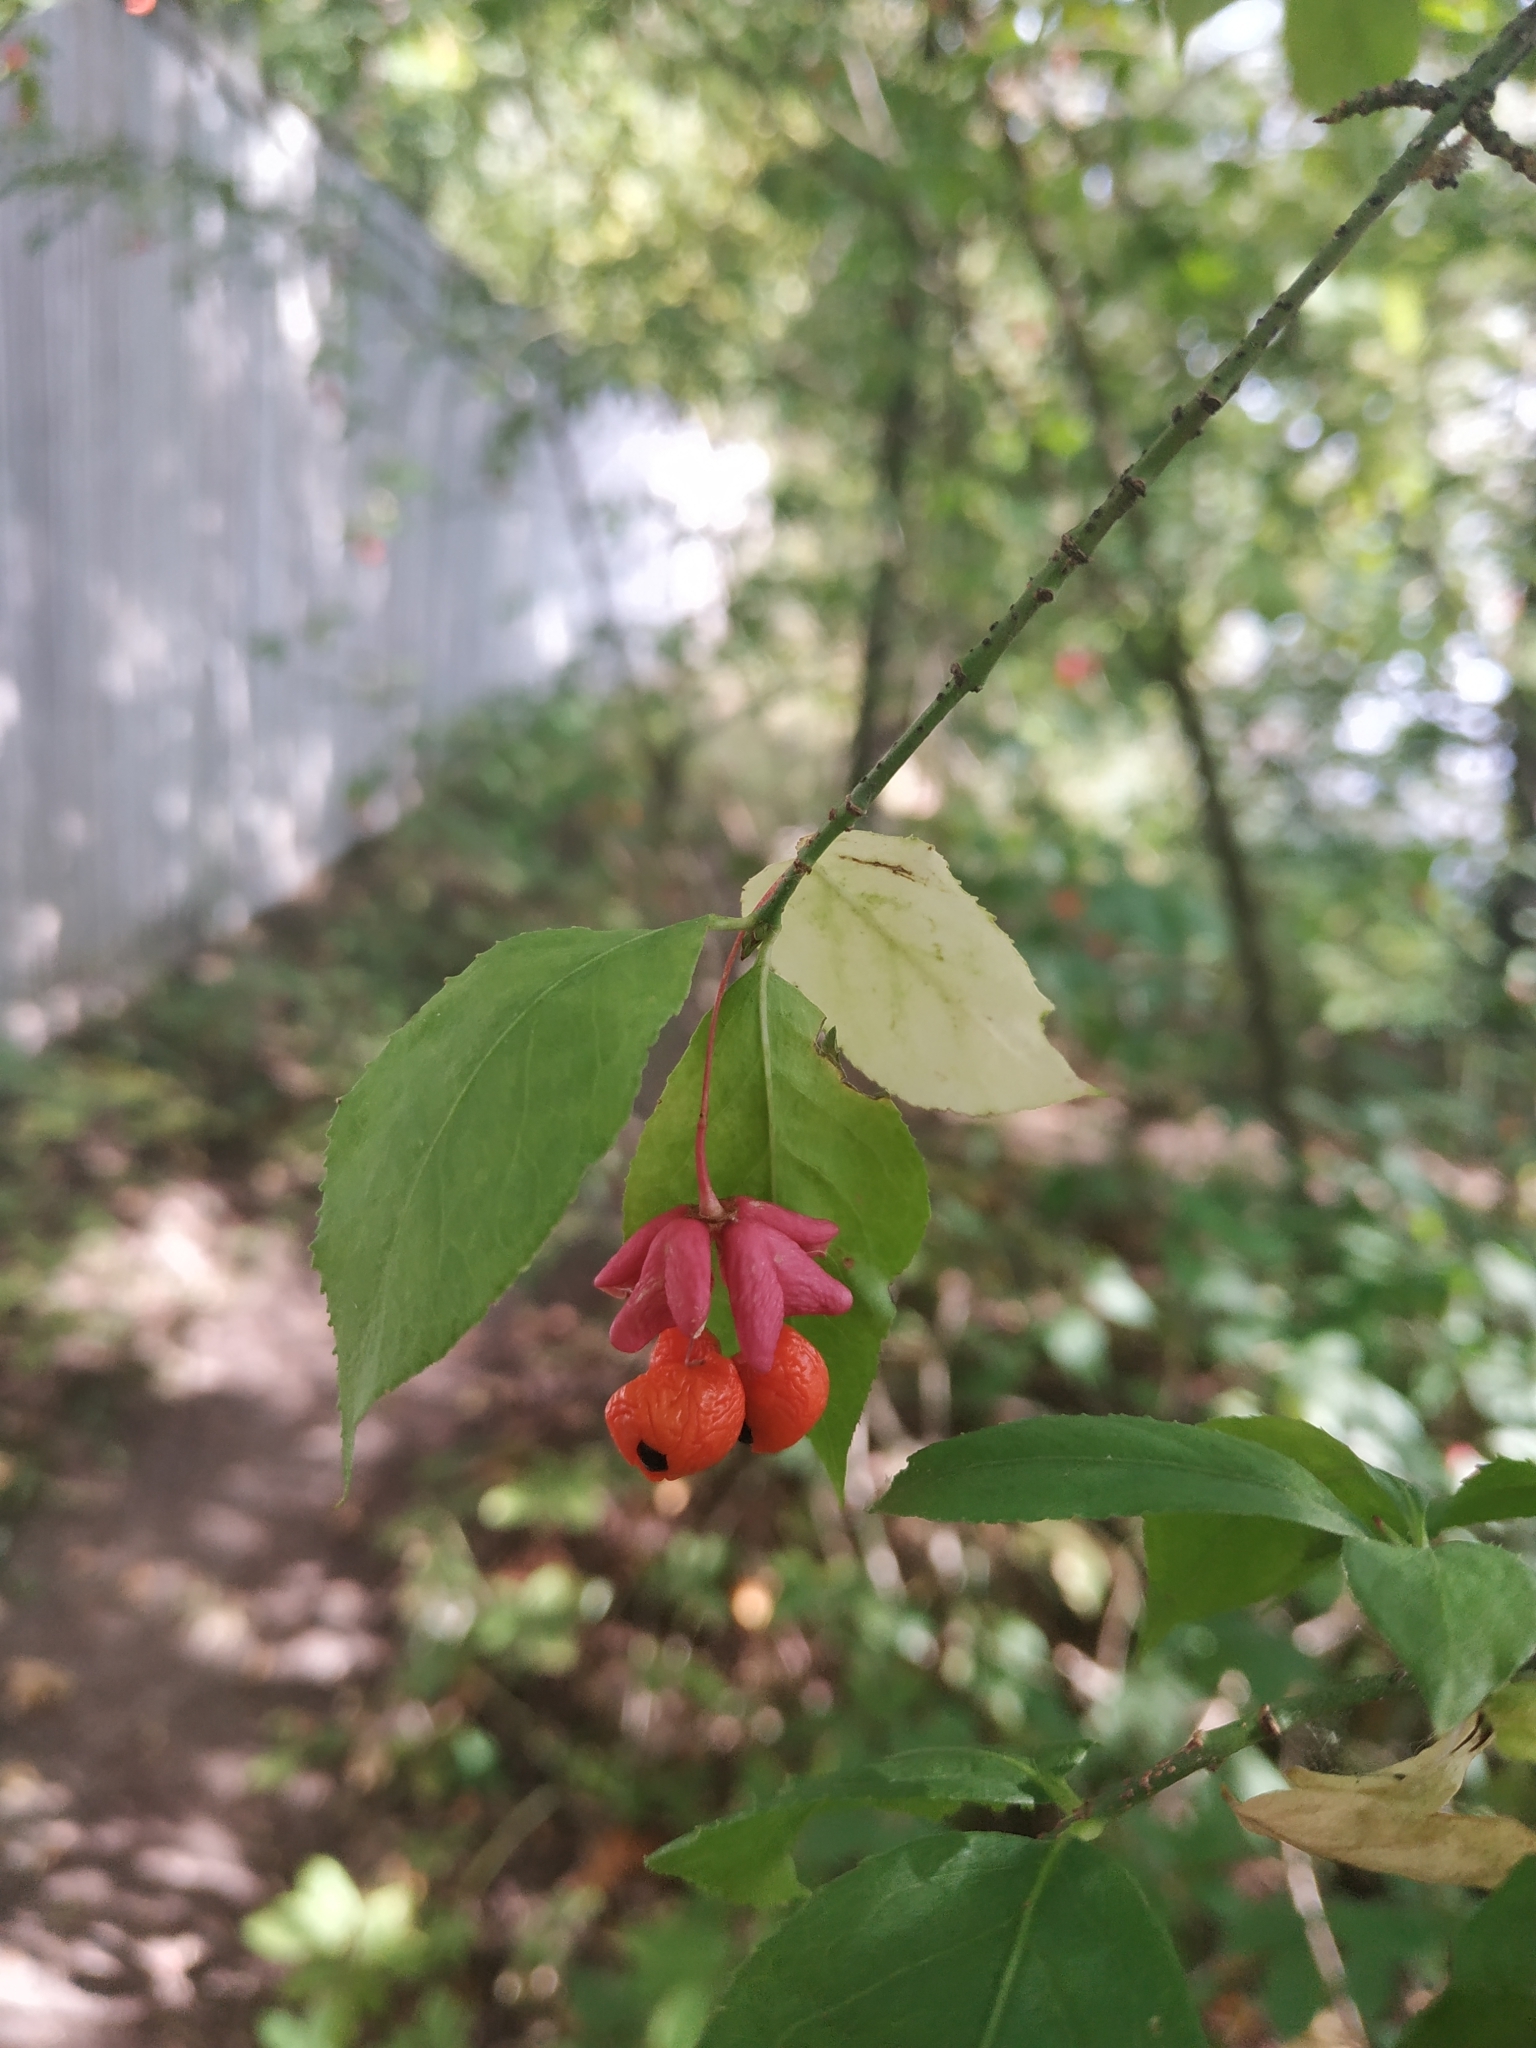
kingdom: Plantae
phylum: Tracheophyta
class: Magnoliopsida
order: Celastrales
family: Celastraceae
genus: Euonymus
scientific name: Euonymus verrucosus
